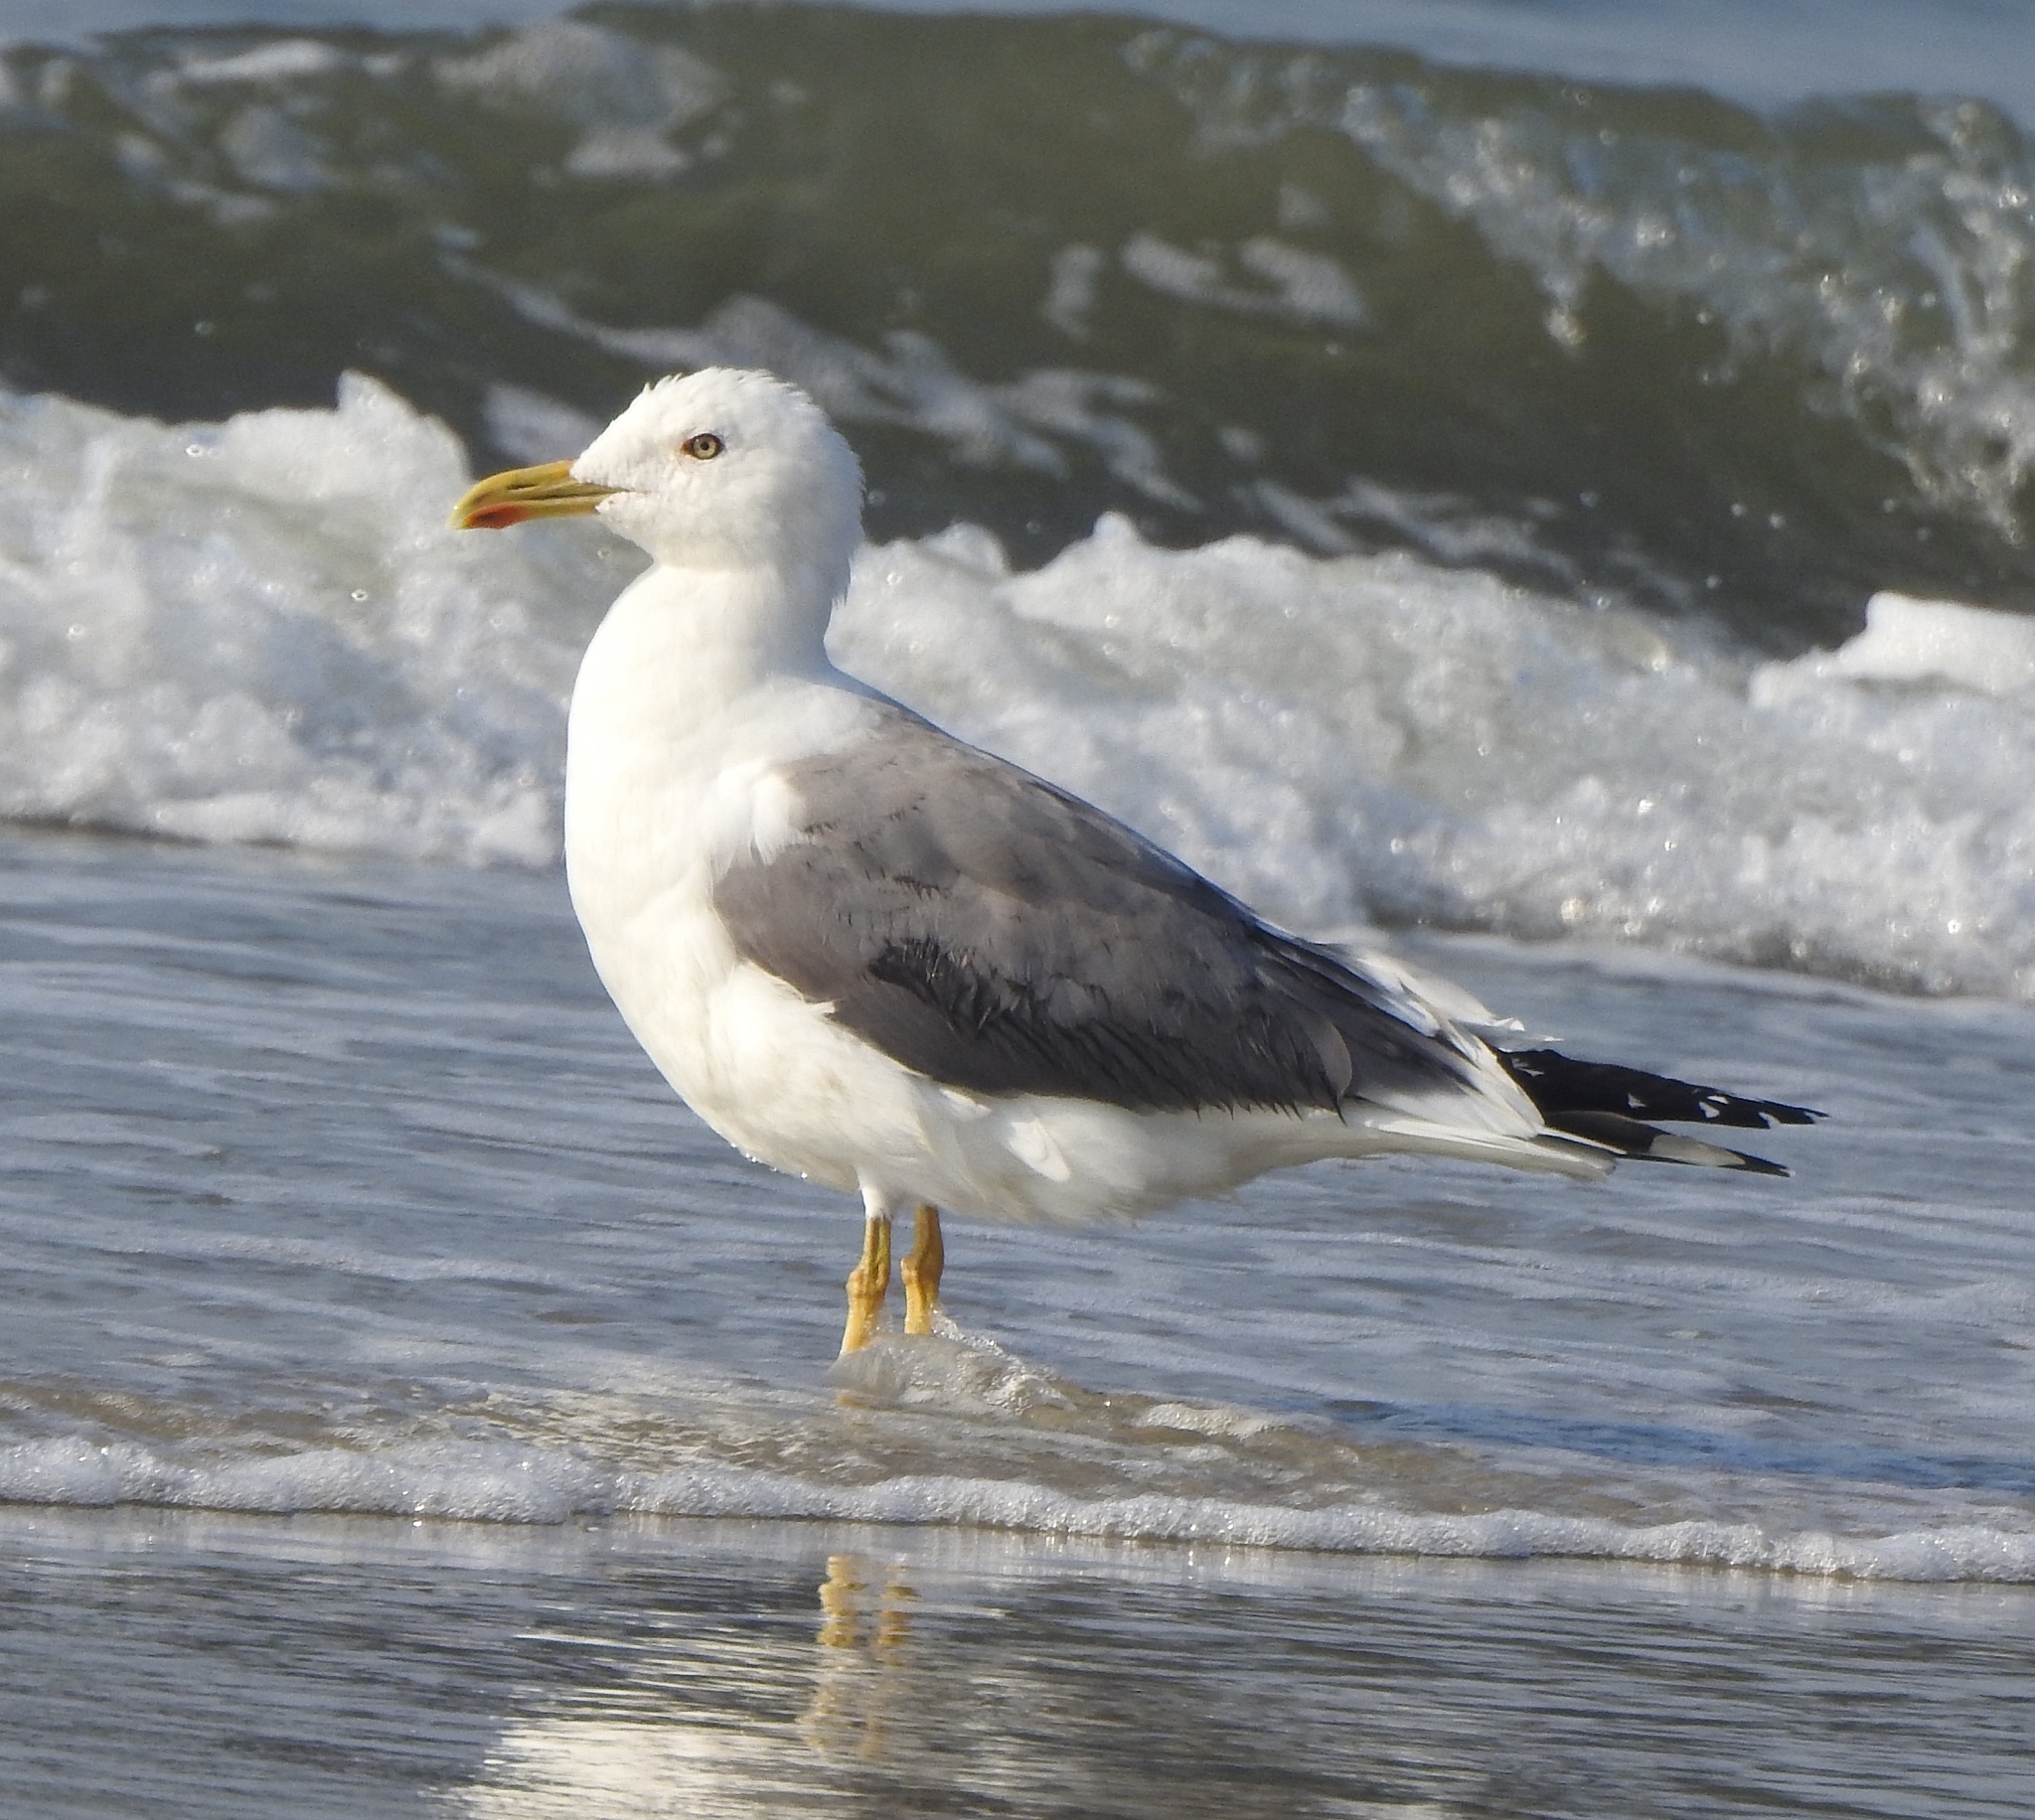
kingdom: Animalia
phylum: Chordata
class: Aves
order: Charadriiformes
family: Laridae
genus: Larus
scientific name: Larus fuscus
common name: Lesser black-backed gull
